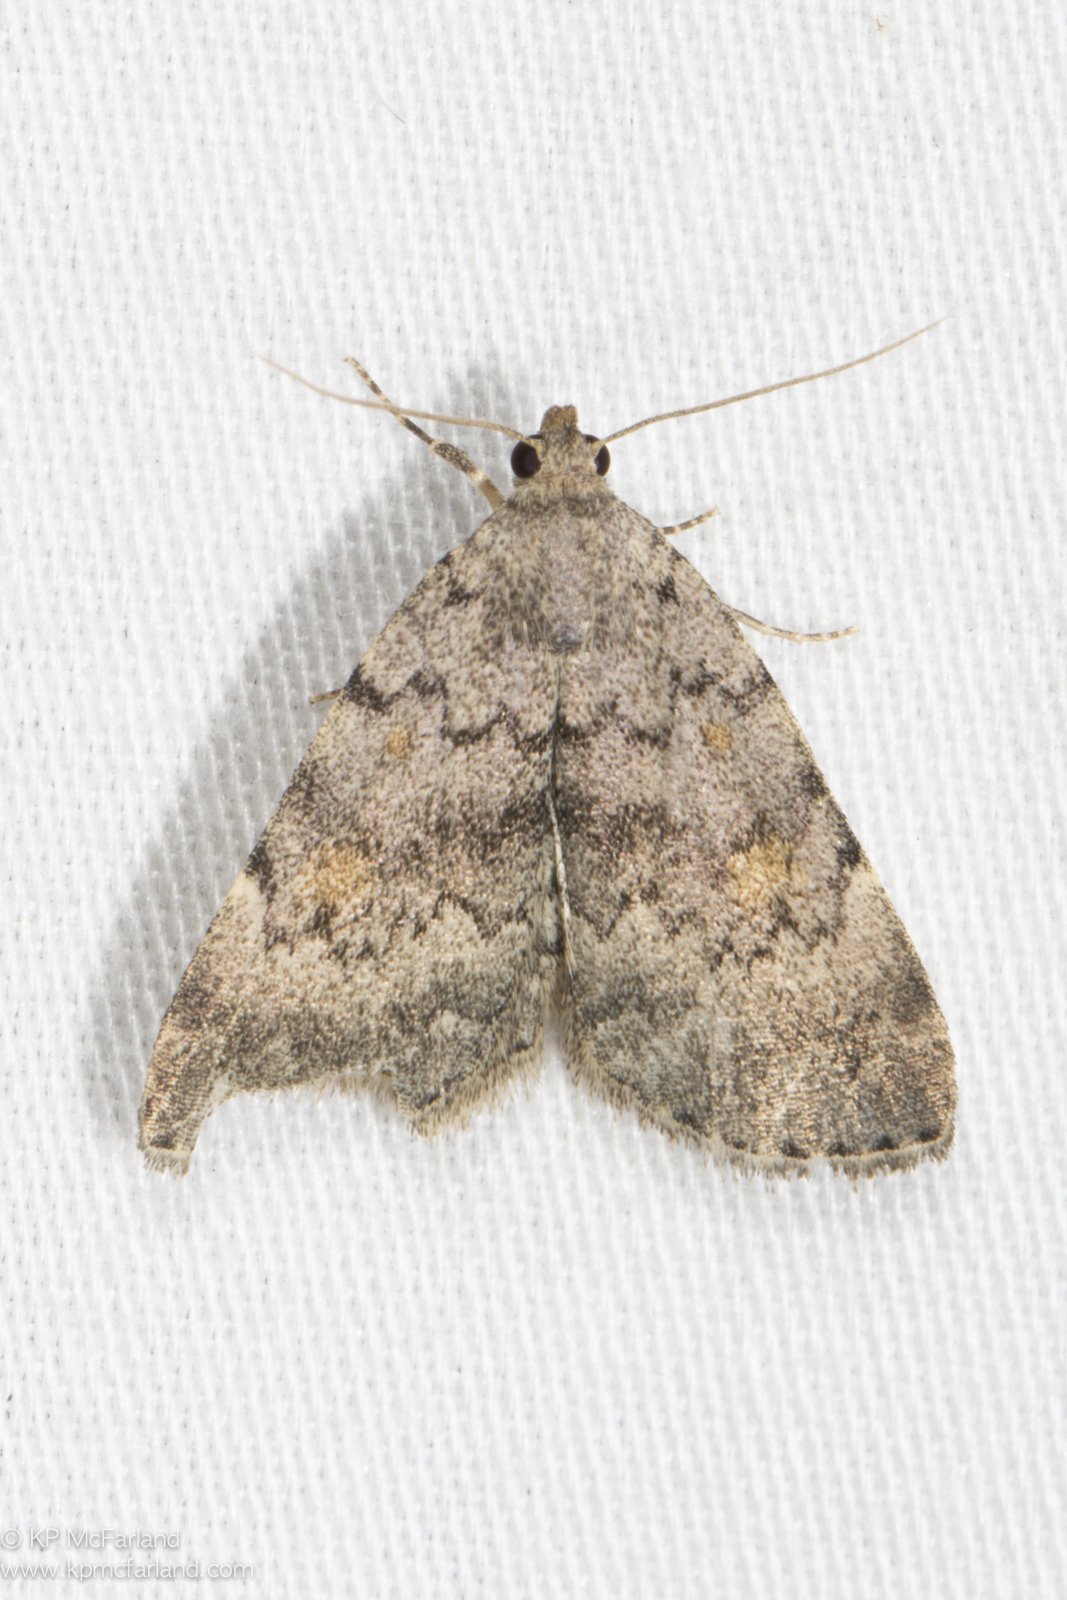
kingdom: Animalia
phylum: Arthropoda
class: Insecta
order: Lepidoptera
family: Erebidae
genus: Idia
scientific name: Idia aemula
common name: Common idia moth
